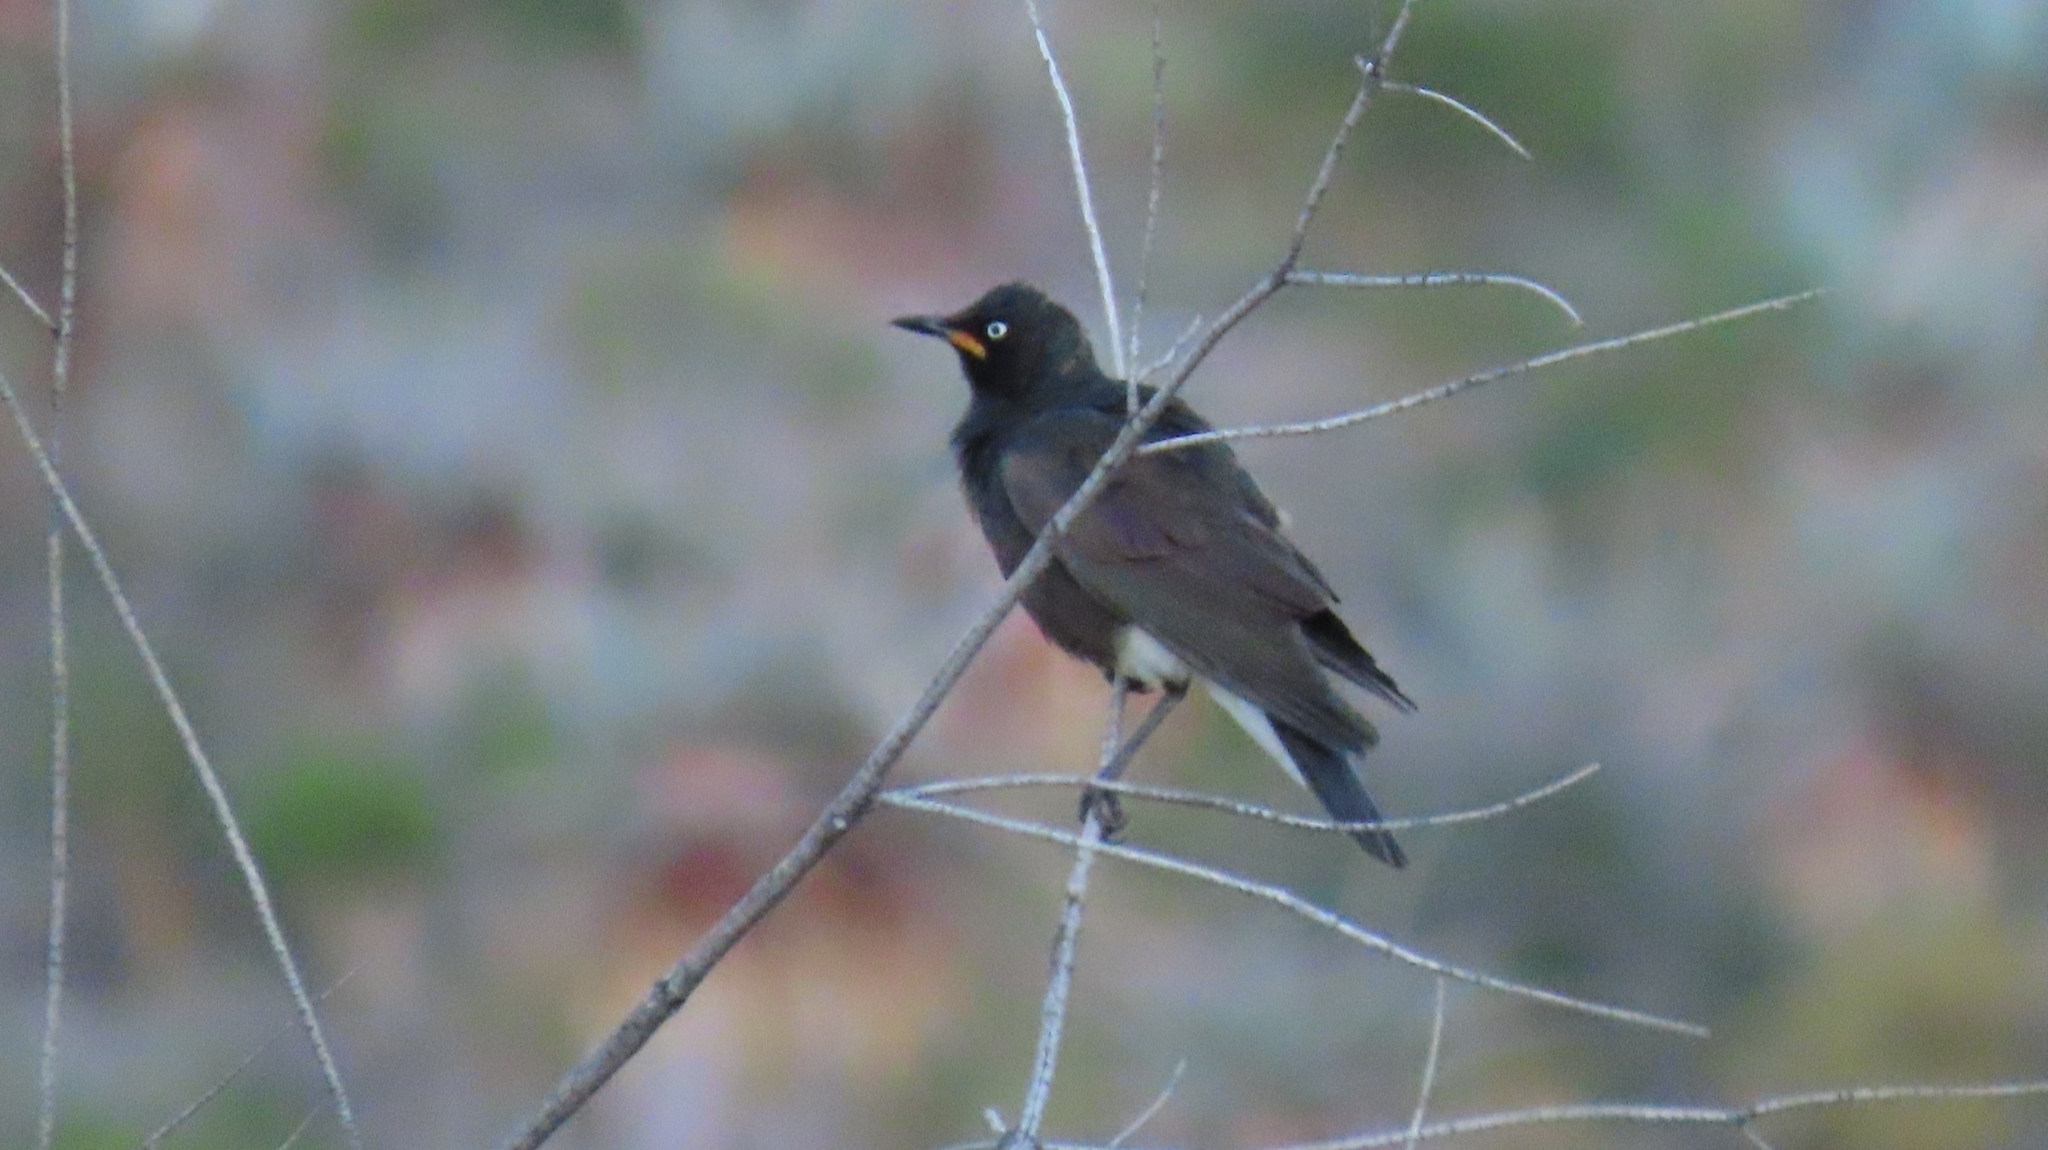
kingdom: Animalia
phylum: Chordata
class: Aves
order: Passeriformes
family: Sturnidae
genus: Lamprotornis
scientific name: Lamprotornis bicolor
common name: Pied starling
